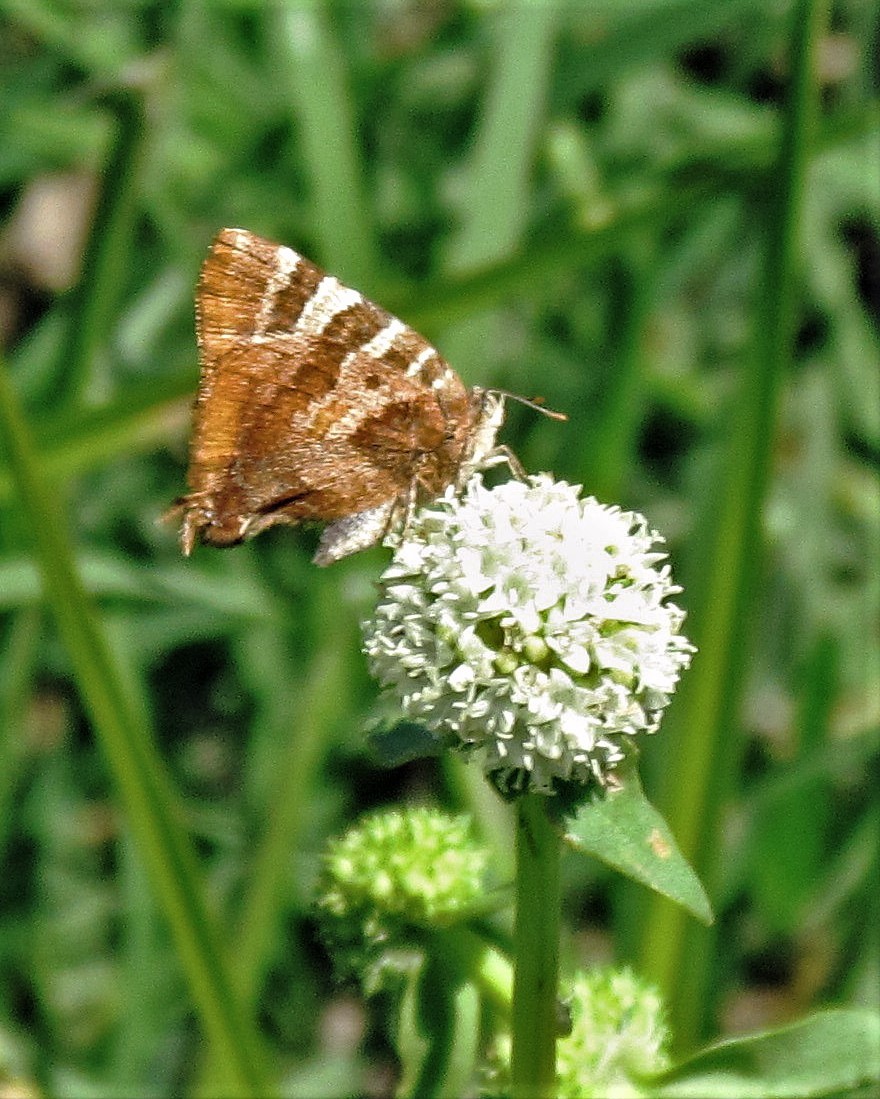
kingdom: Animalia
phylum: Arthropoda
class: Insecta
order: Lepidoptera
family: Lycaenidae
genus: Arawacus
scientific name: Arawacus ellida
